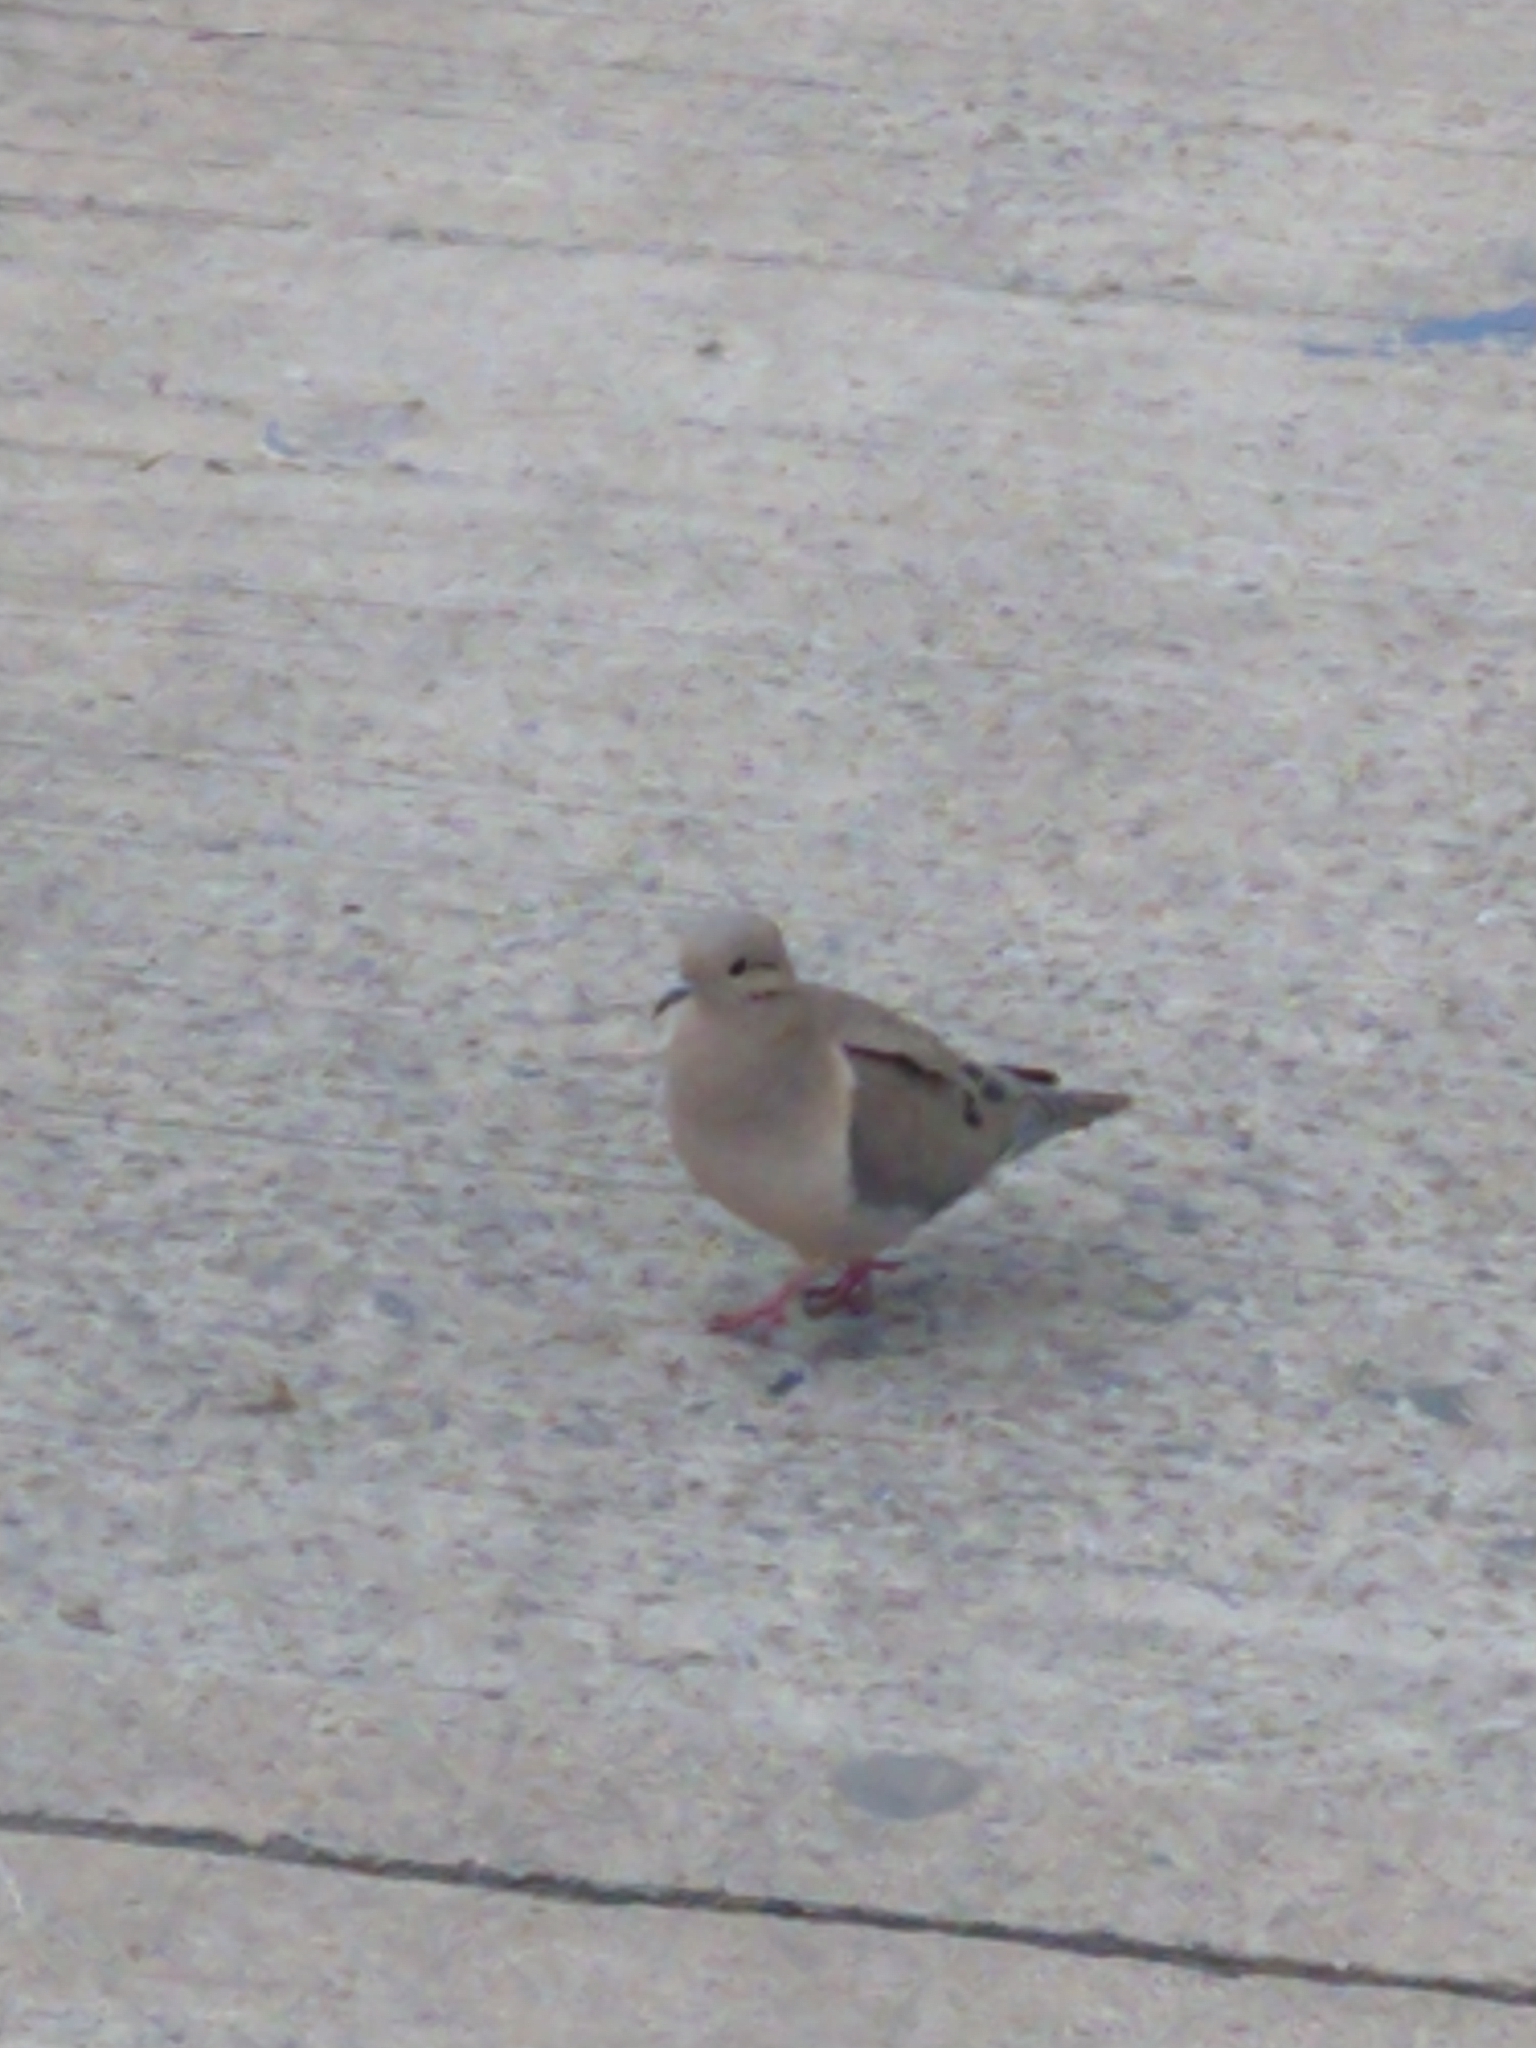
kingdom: Animalia
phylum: Chordata
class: Aves
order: Columbiformes
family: Columbidae
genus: Zenaida
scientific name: Zenaida auriculata
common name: Eared dove
